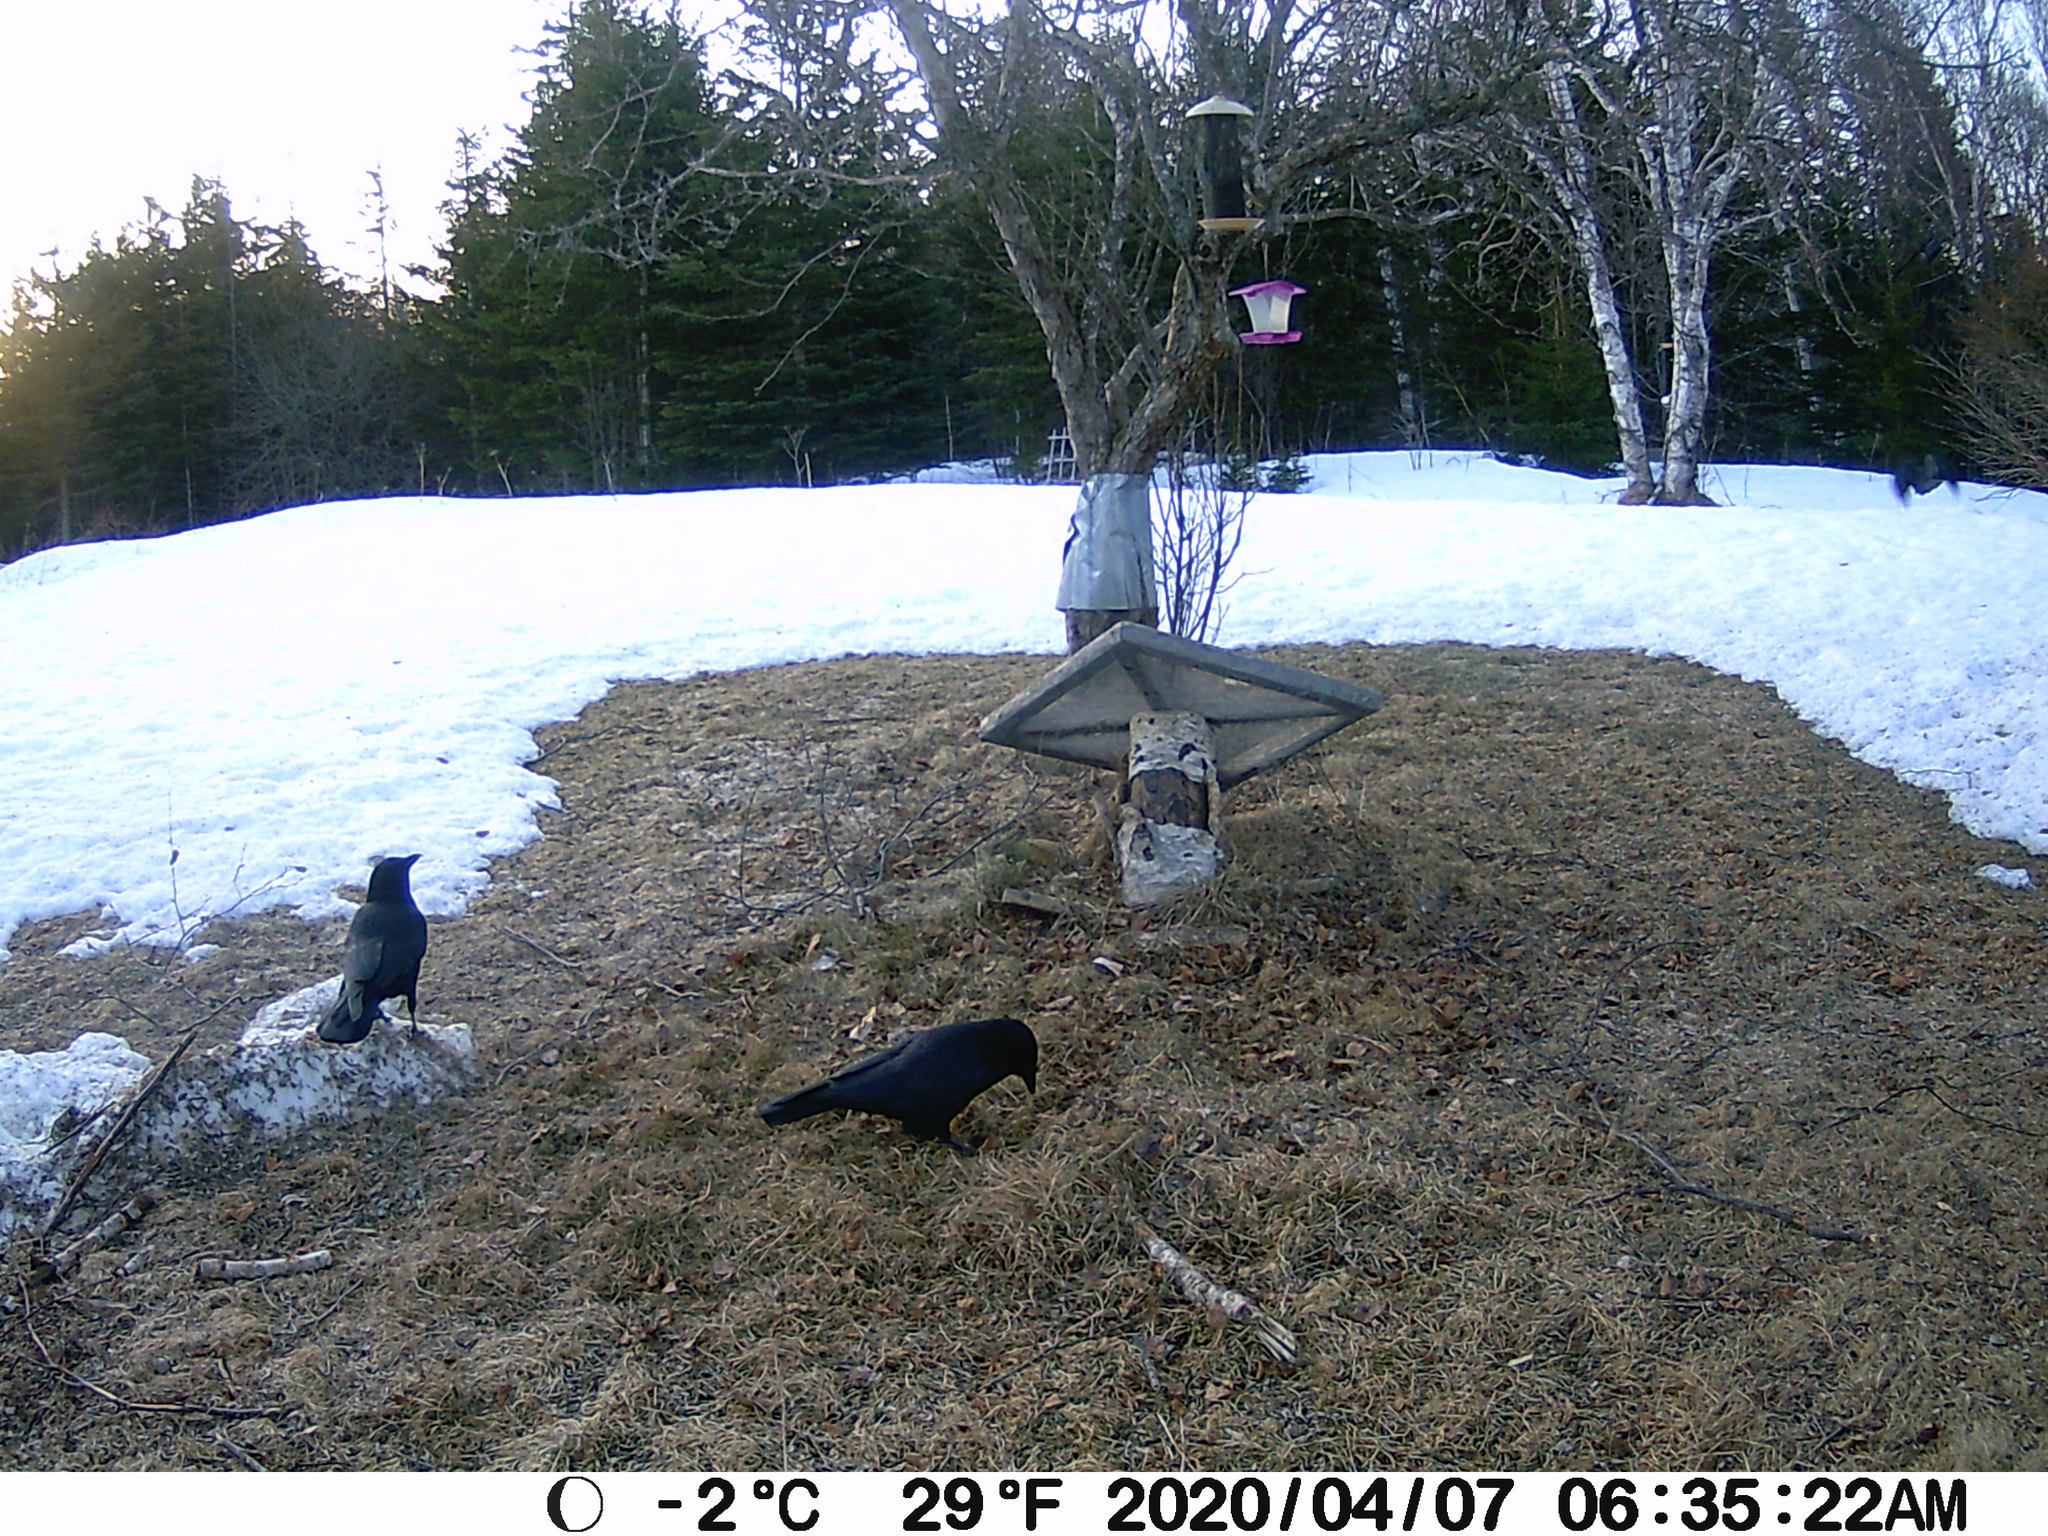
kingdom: Animalia
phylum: Chordata
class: Aves
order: Passeriformes
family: Corvidae
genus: Corvus
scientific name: Corvus brachyrhynchos
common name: American crow
